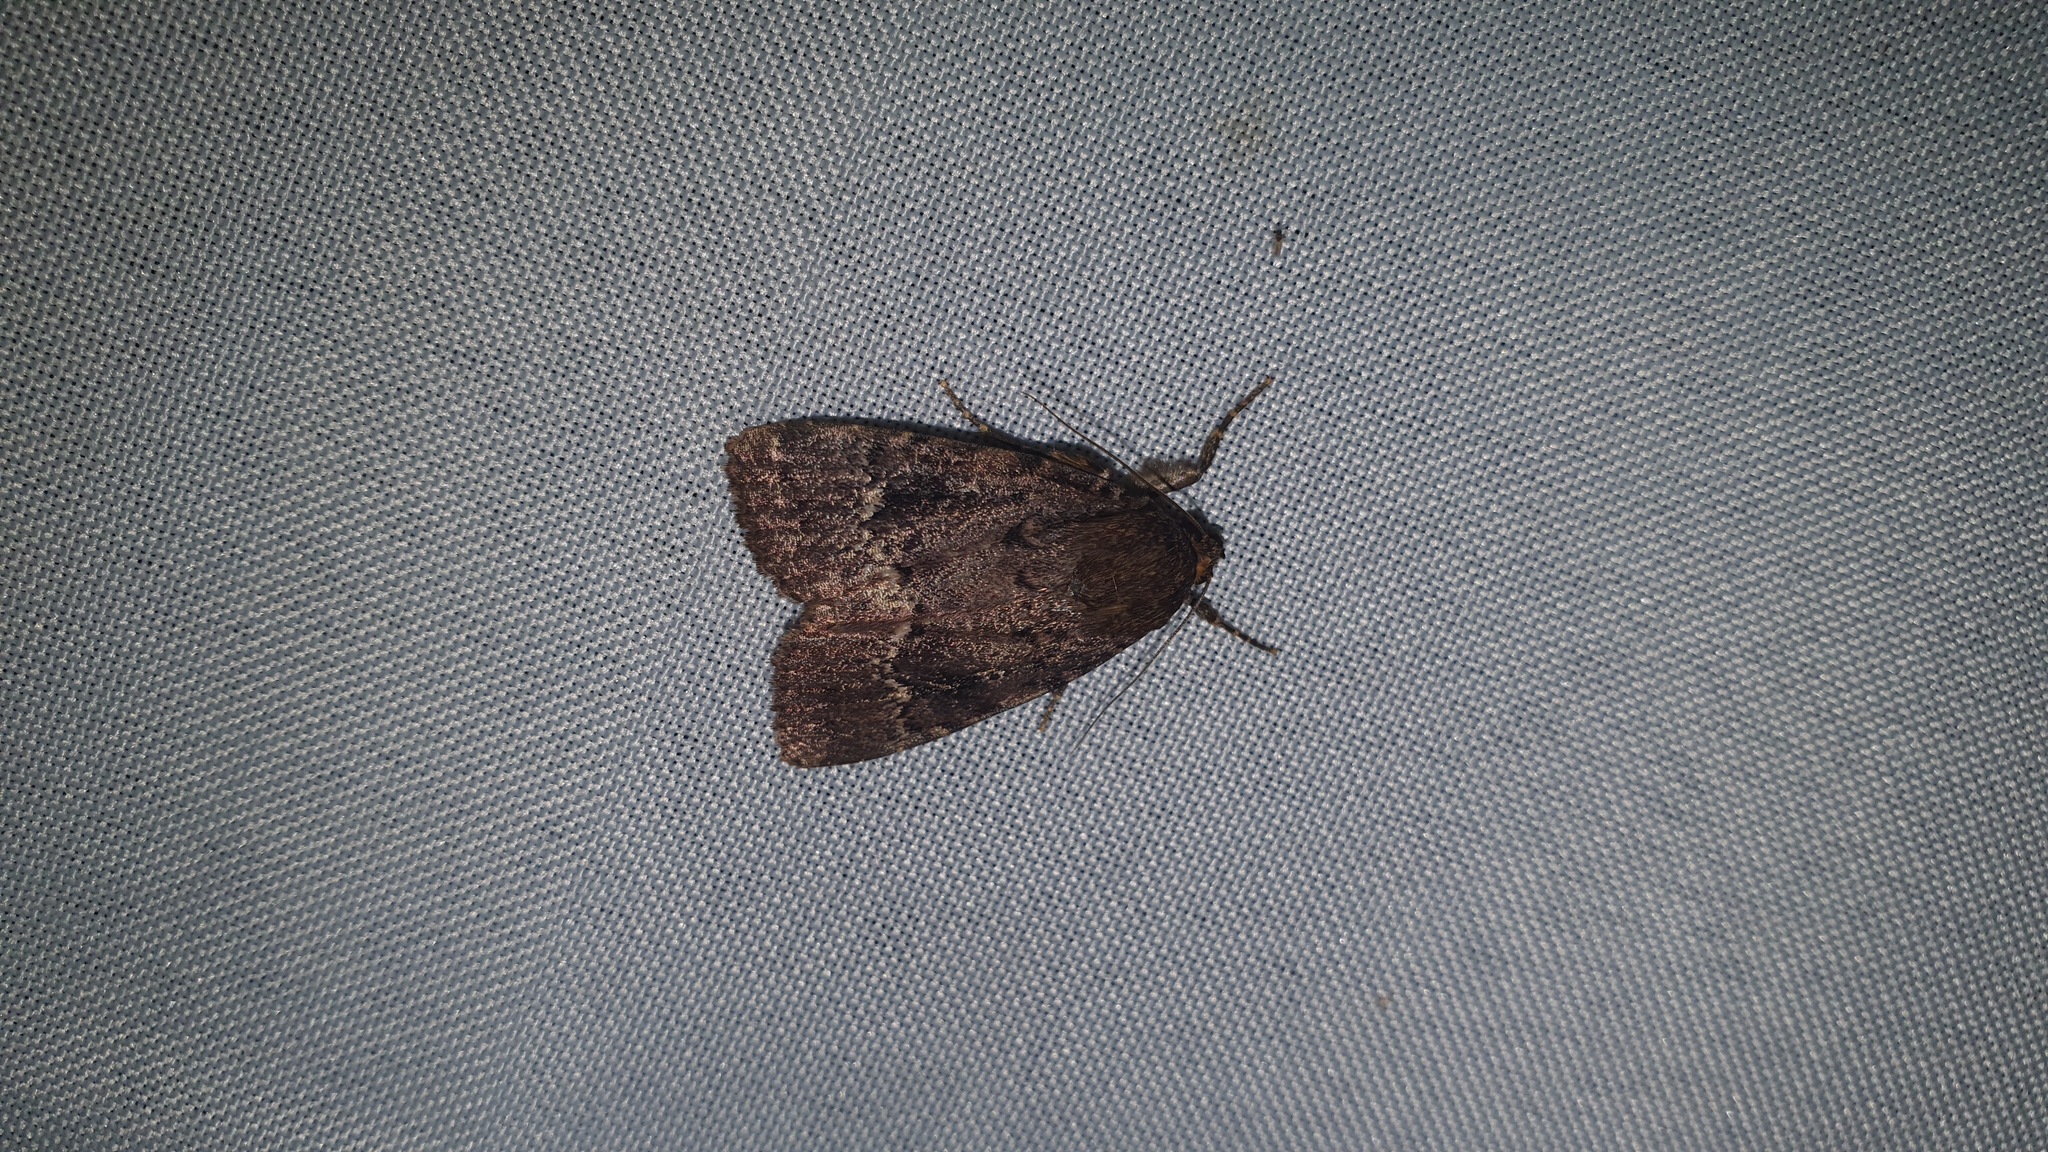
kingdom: Animalia
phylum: Arthropoda
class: Insecta
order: Lepidoptera
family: Noctuidae
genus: Amphipyra
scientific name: Amphipyra pyramidea
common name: Copper underwing
